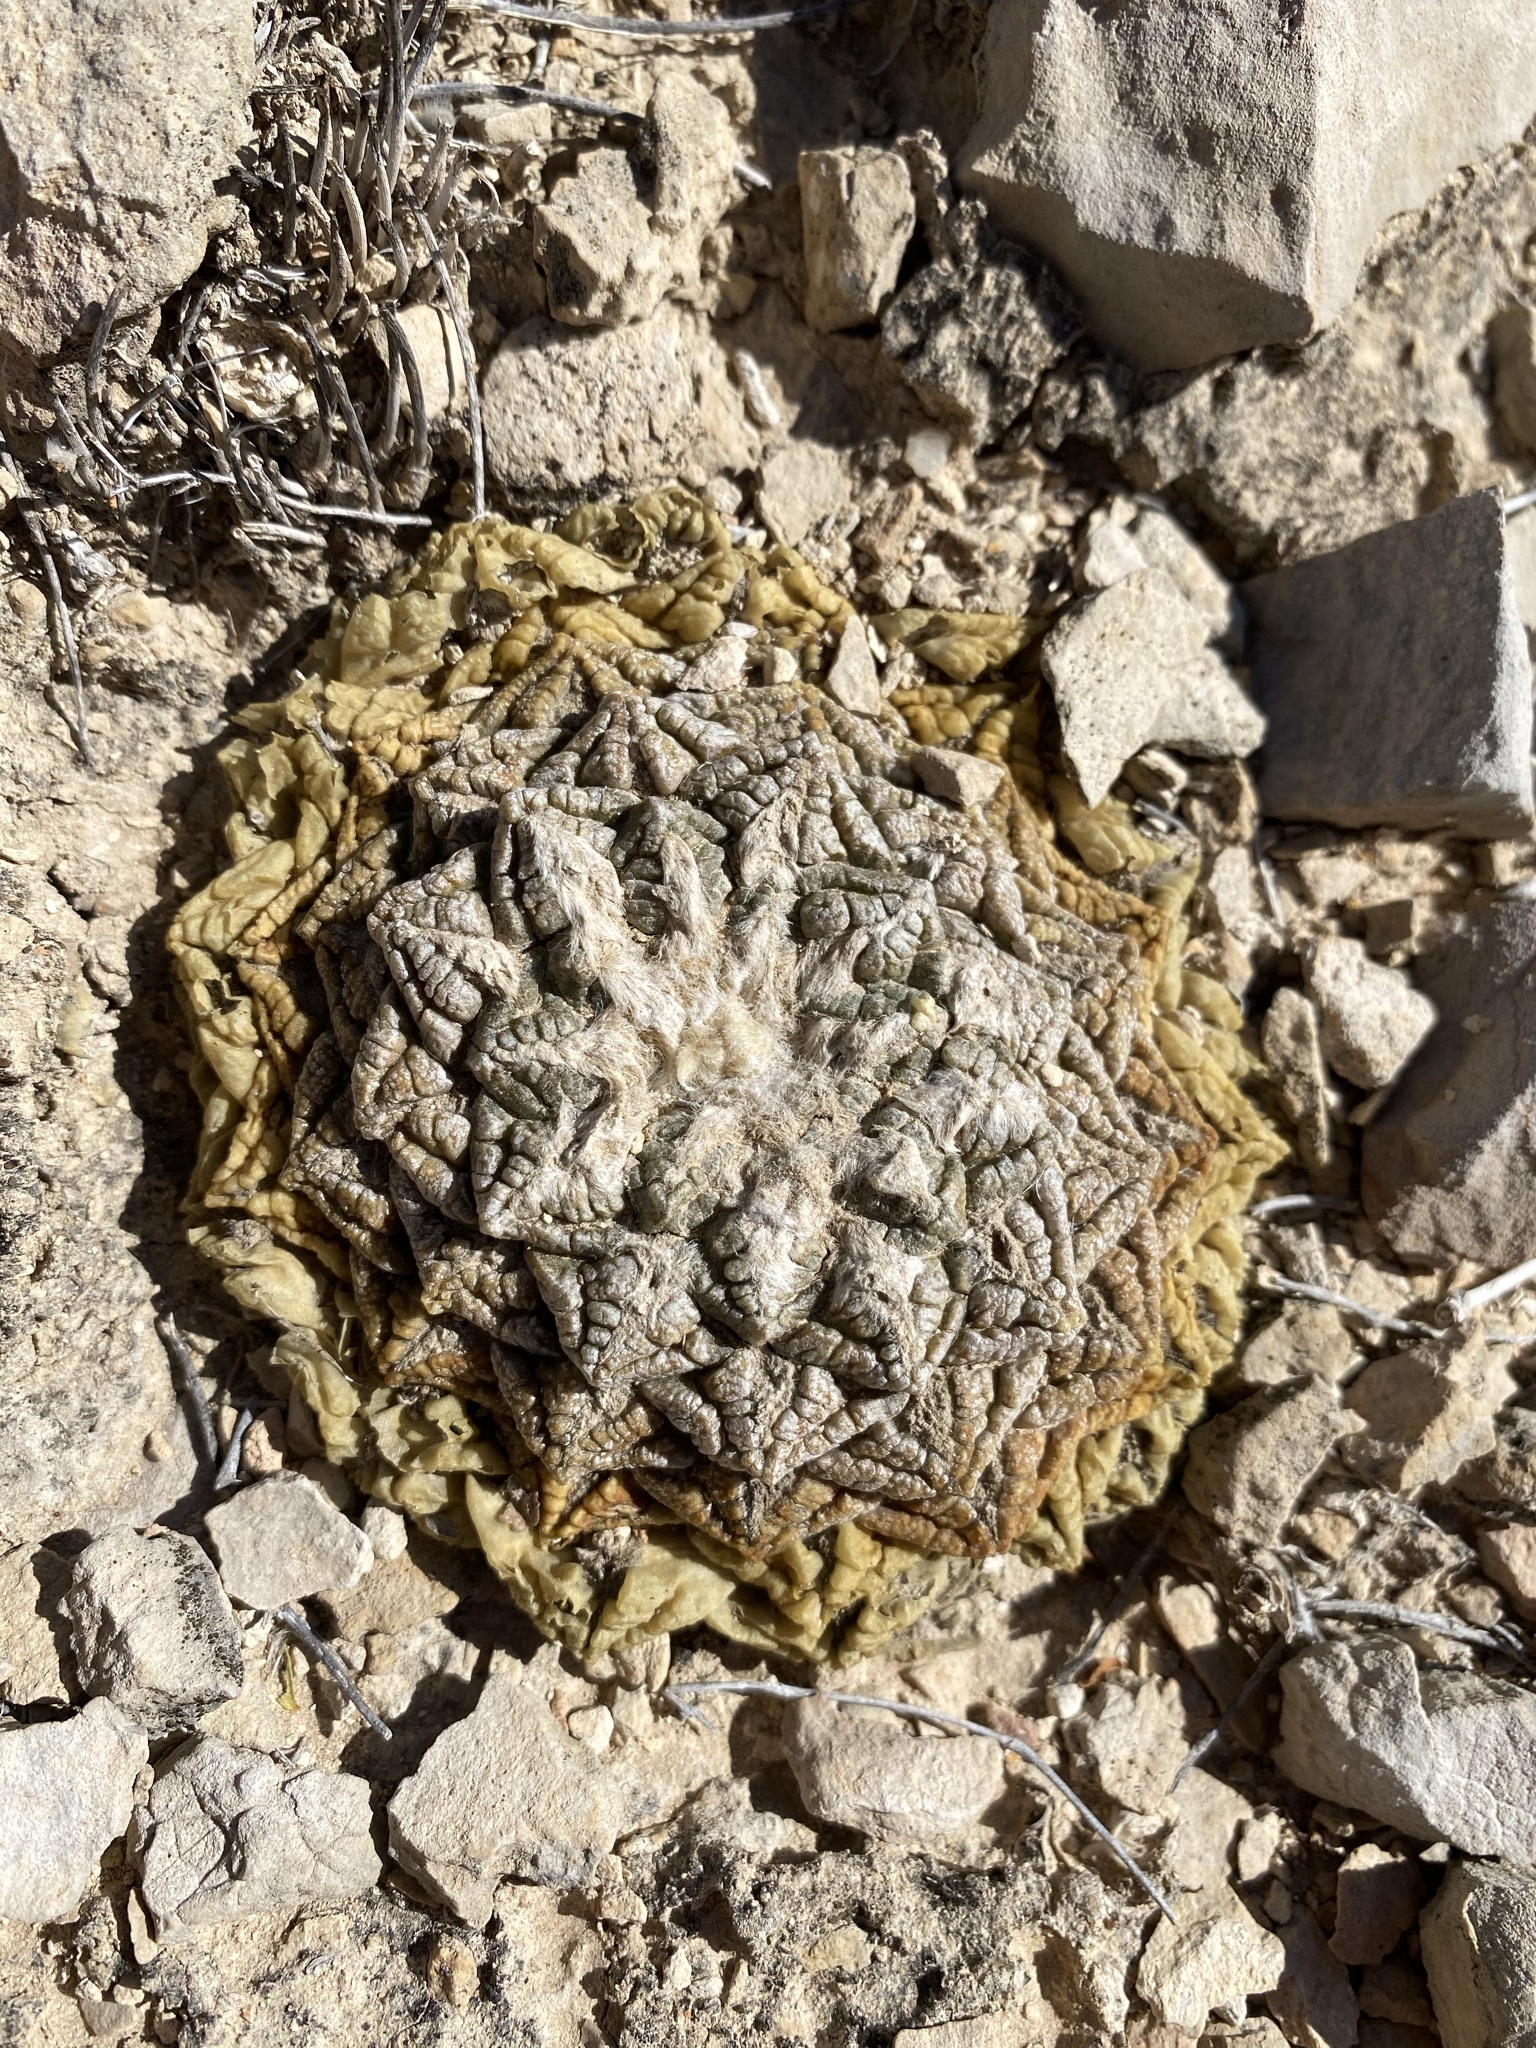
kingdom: Plantae
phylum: Tracheophyta
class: Magnoliopsida
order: Caryophyllales
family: Cactaceae
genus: Ariocarpus
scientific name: Ariocarpus fissuratus
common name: Chautle-living rock
